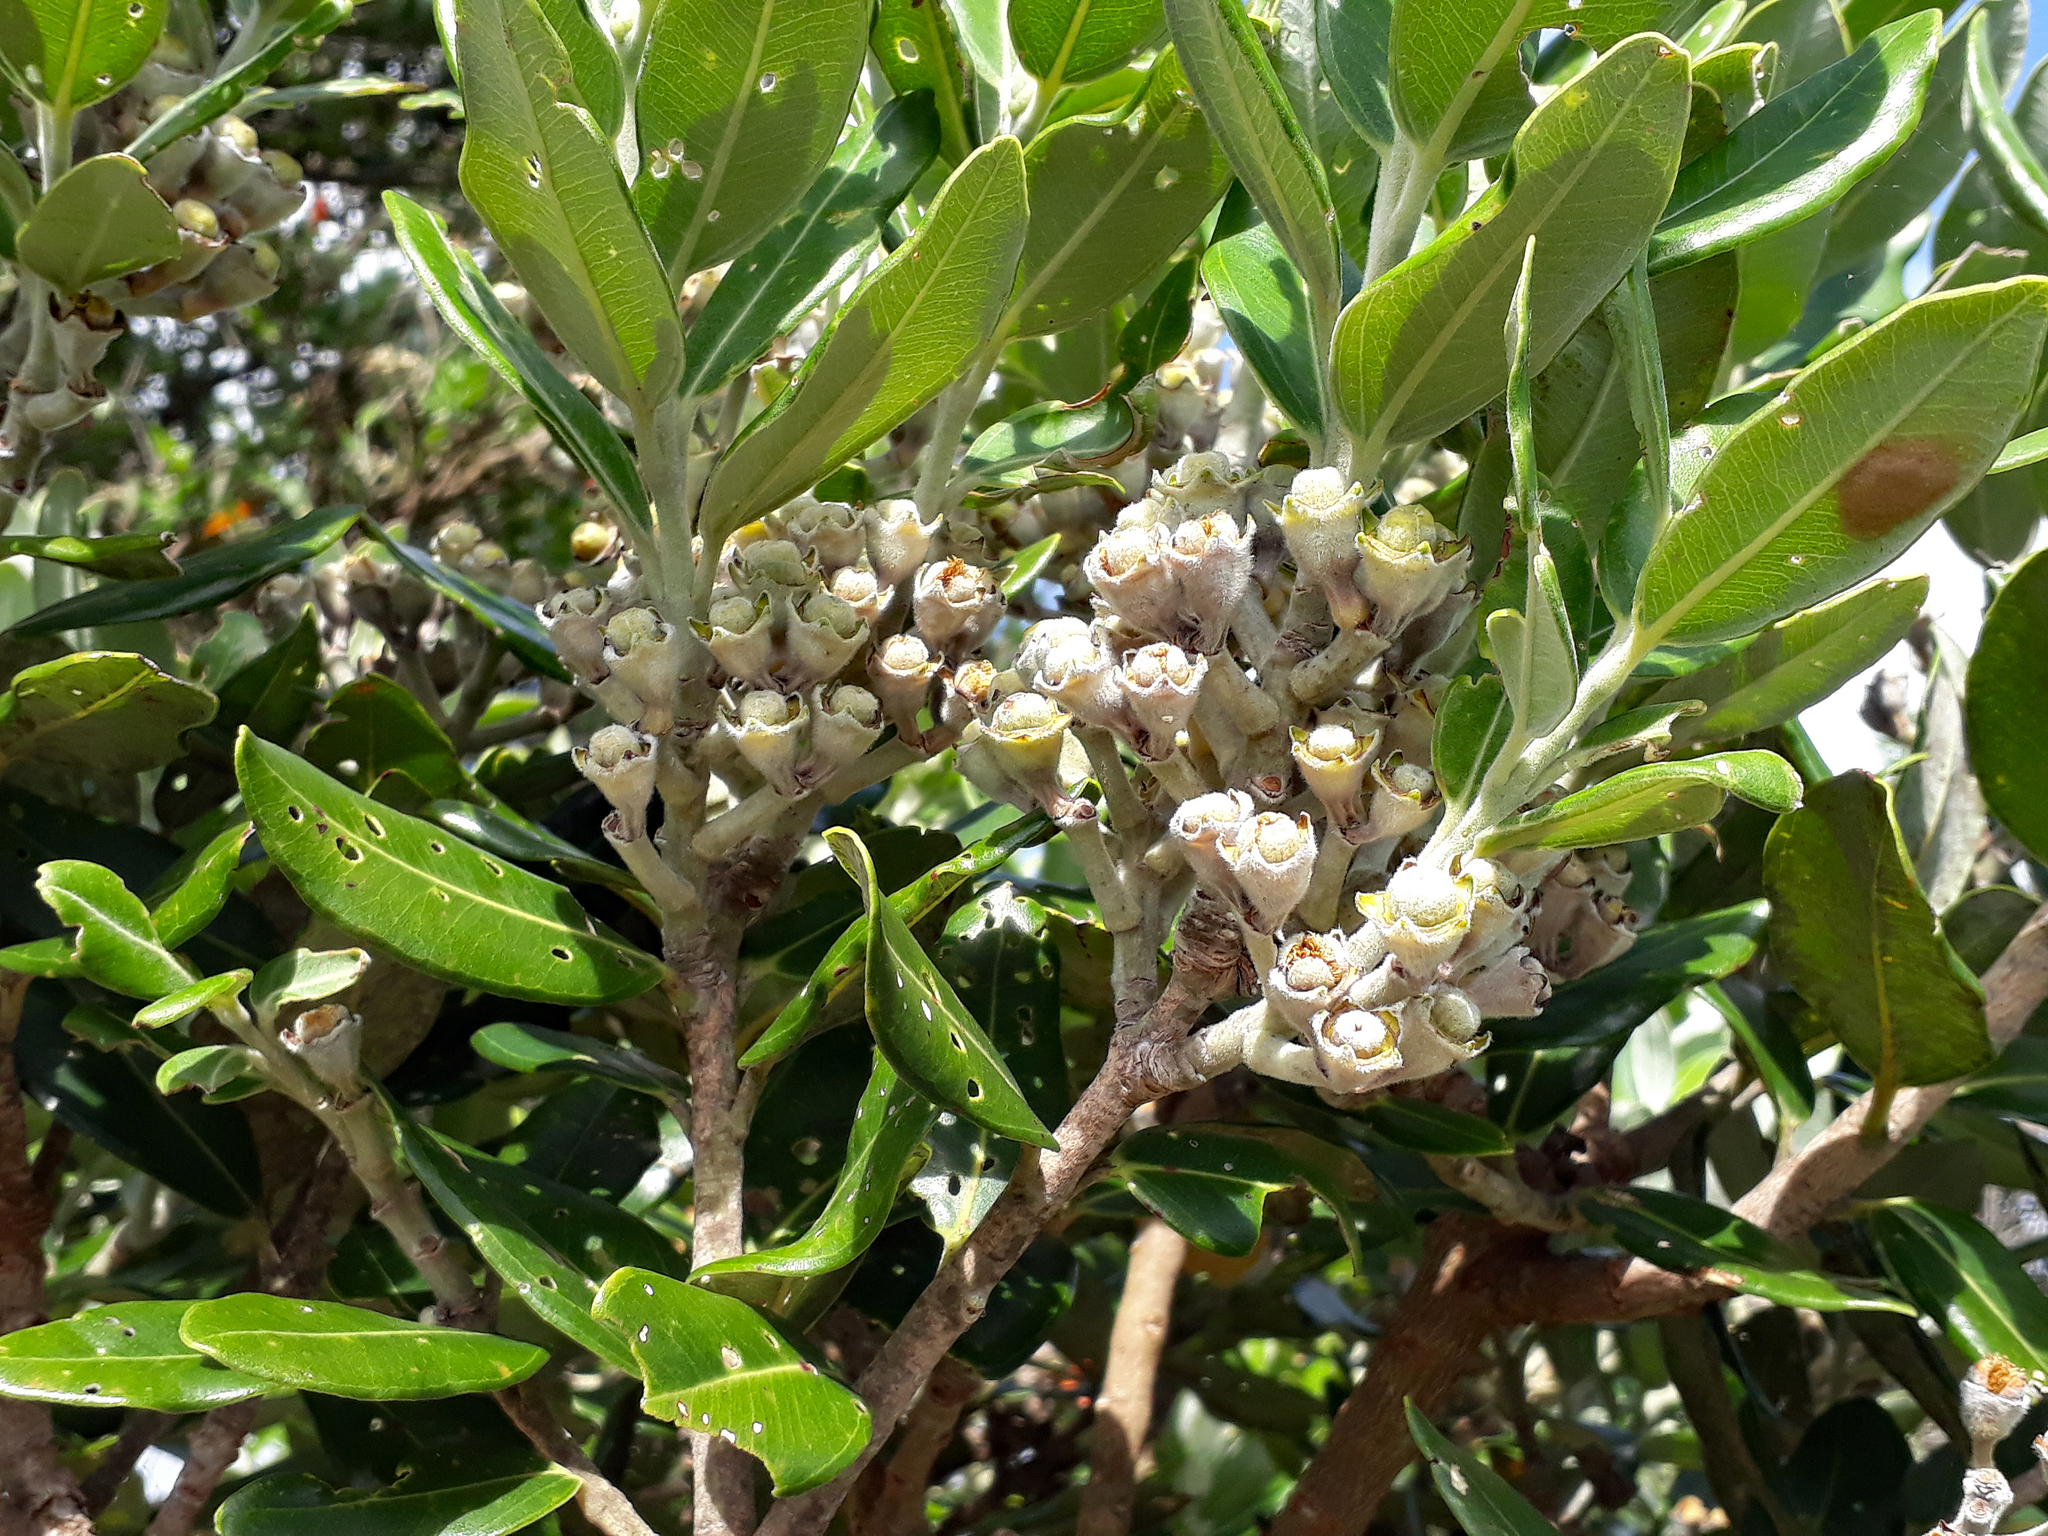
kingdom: Plantae
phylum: Tracheophyta
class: Magnoliopsida
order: Myrtales
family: Myrtaceae
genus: Metrosideros
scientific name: Metrosideros excelsa
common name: New zealand christmastree
